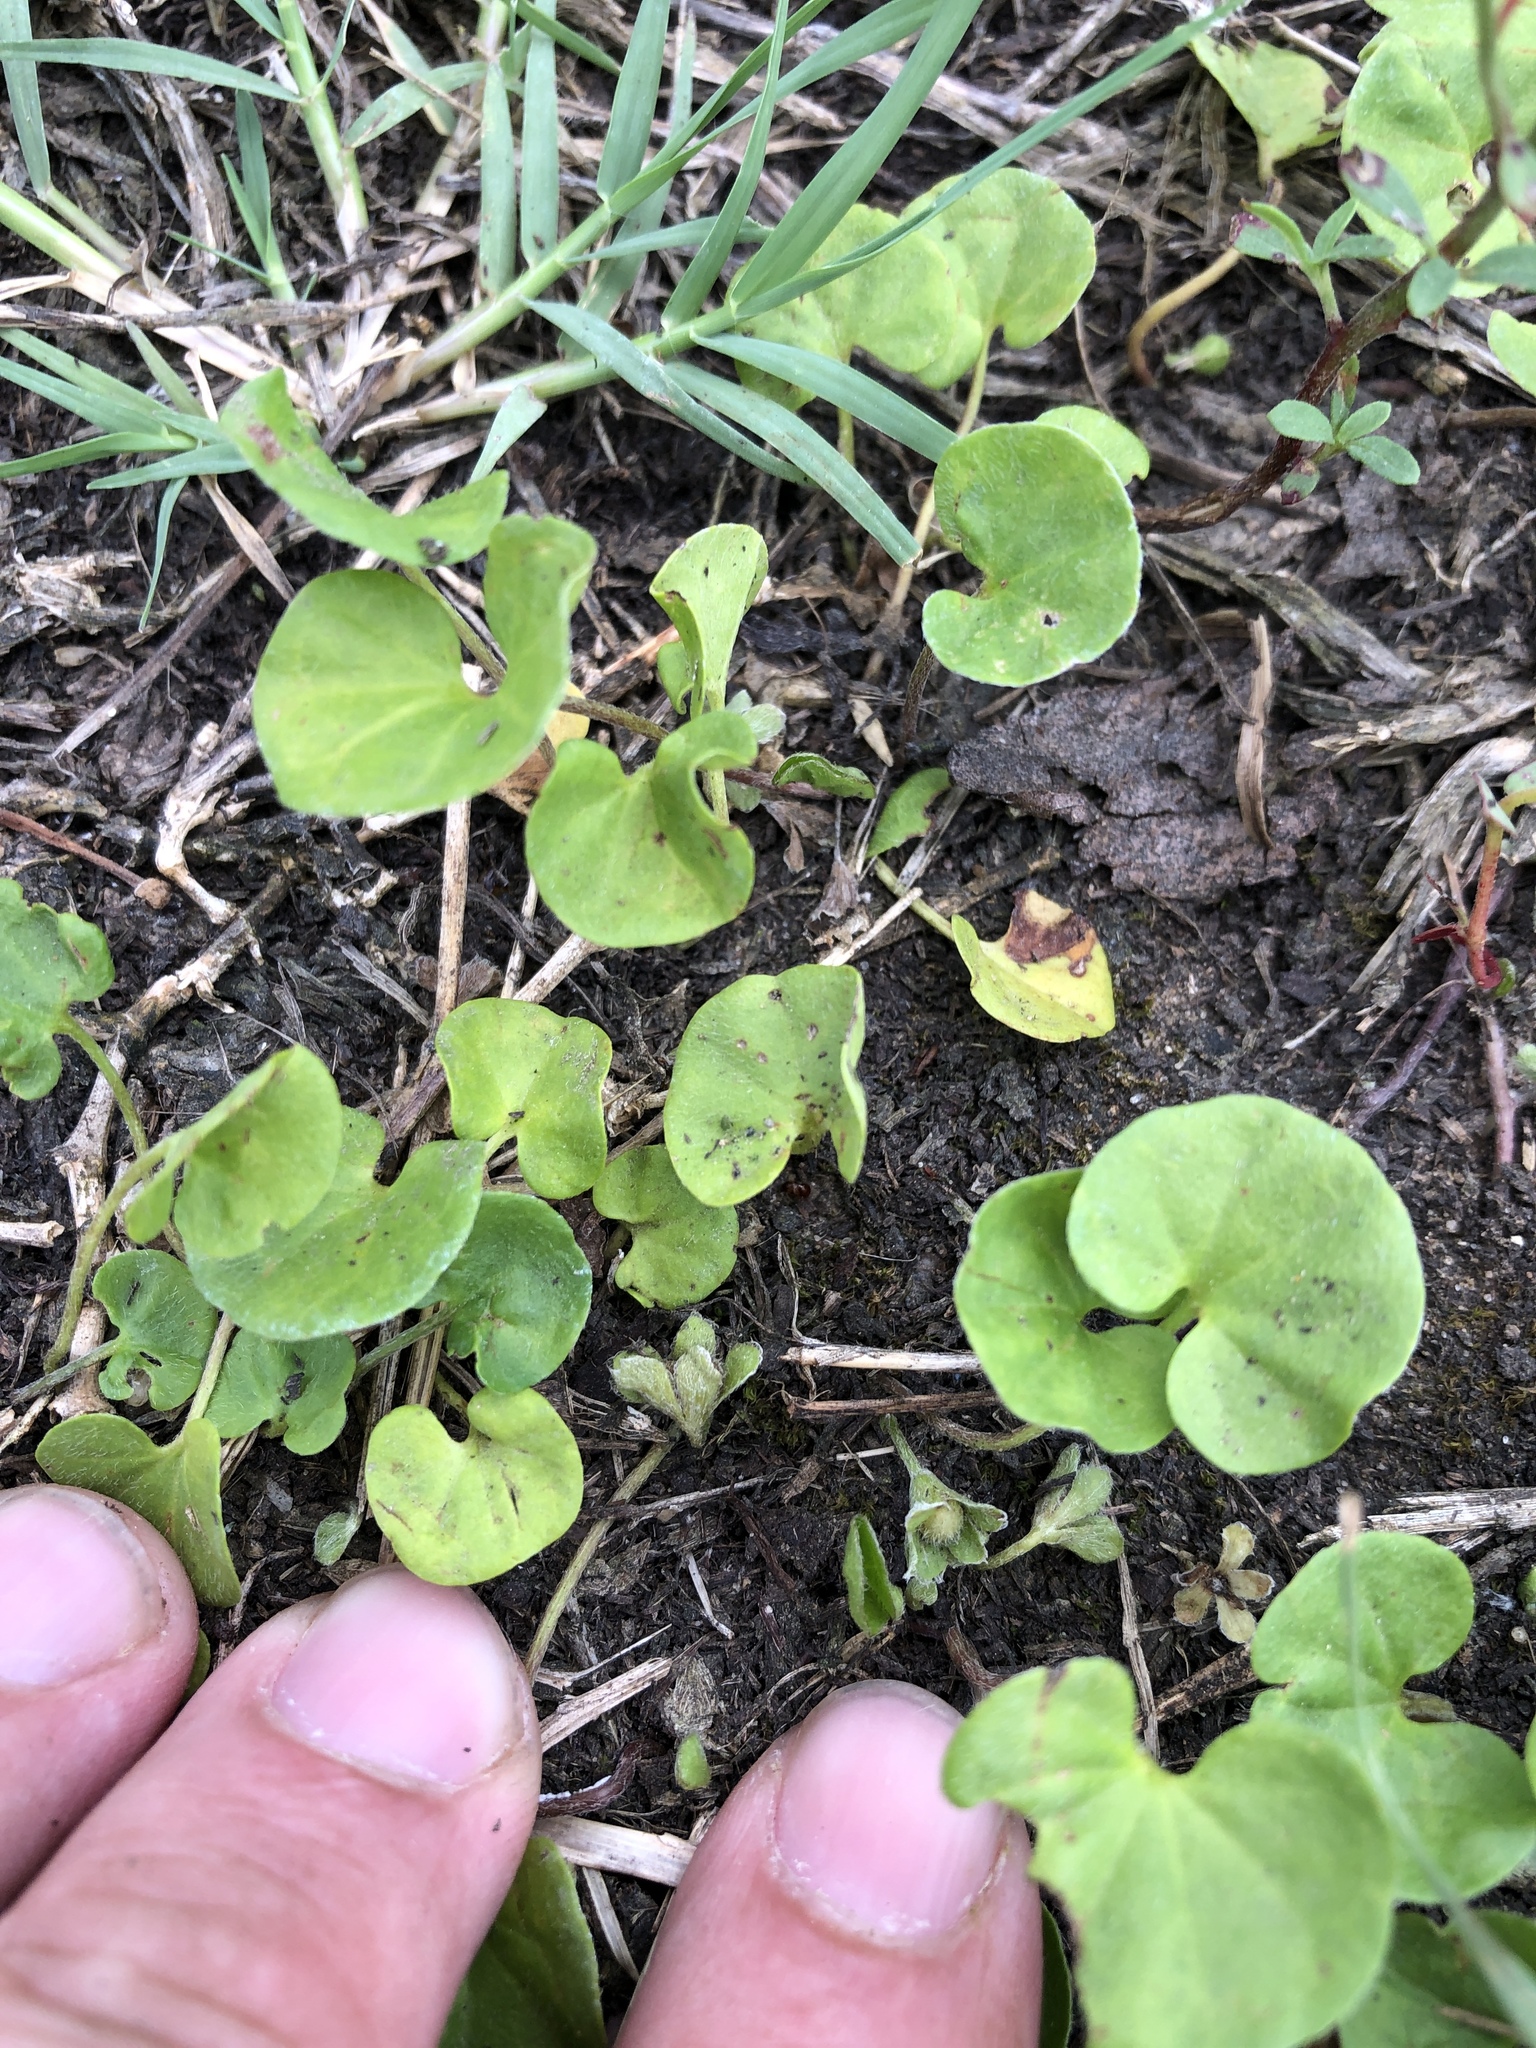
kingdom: Plantae
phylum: Tracheophyta
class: Magnoliopsida
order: Solanales
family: Convolvulaceae
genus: Dichondra
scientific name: Dichondra carolinensis
